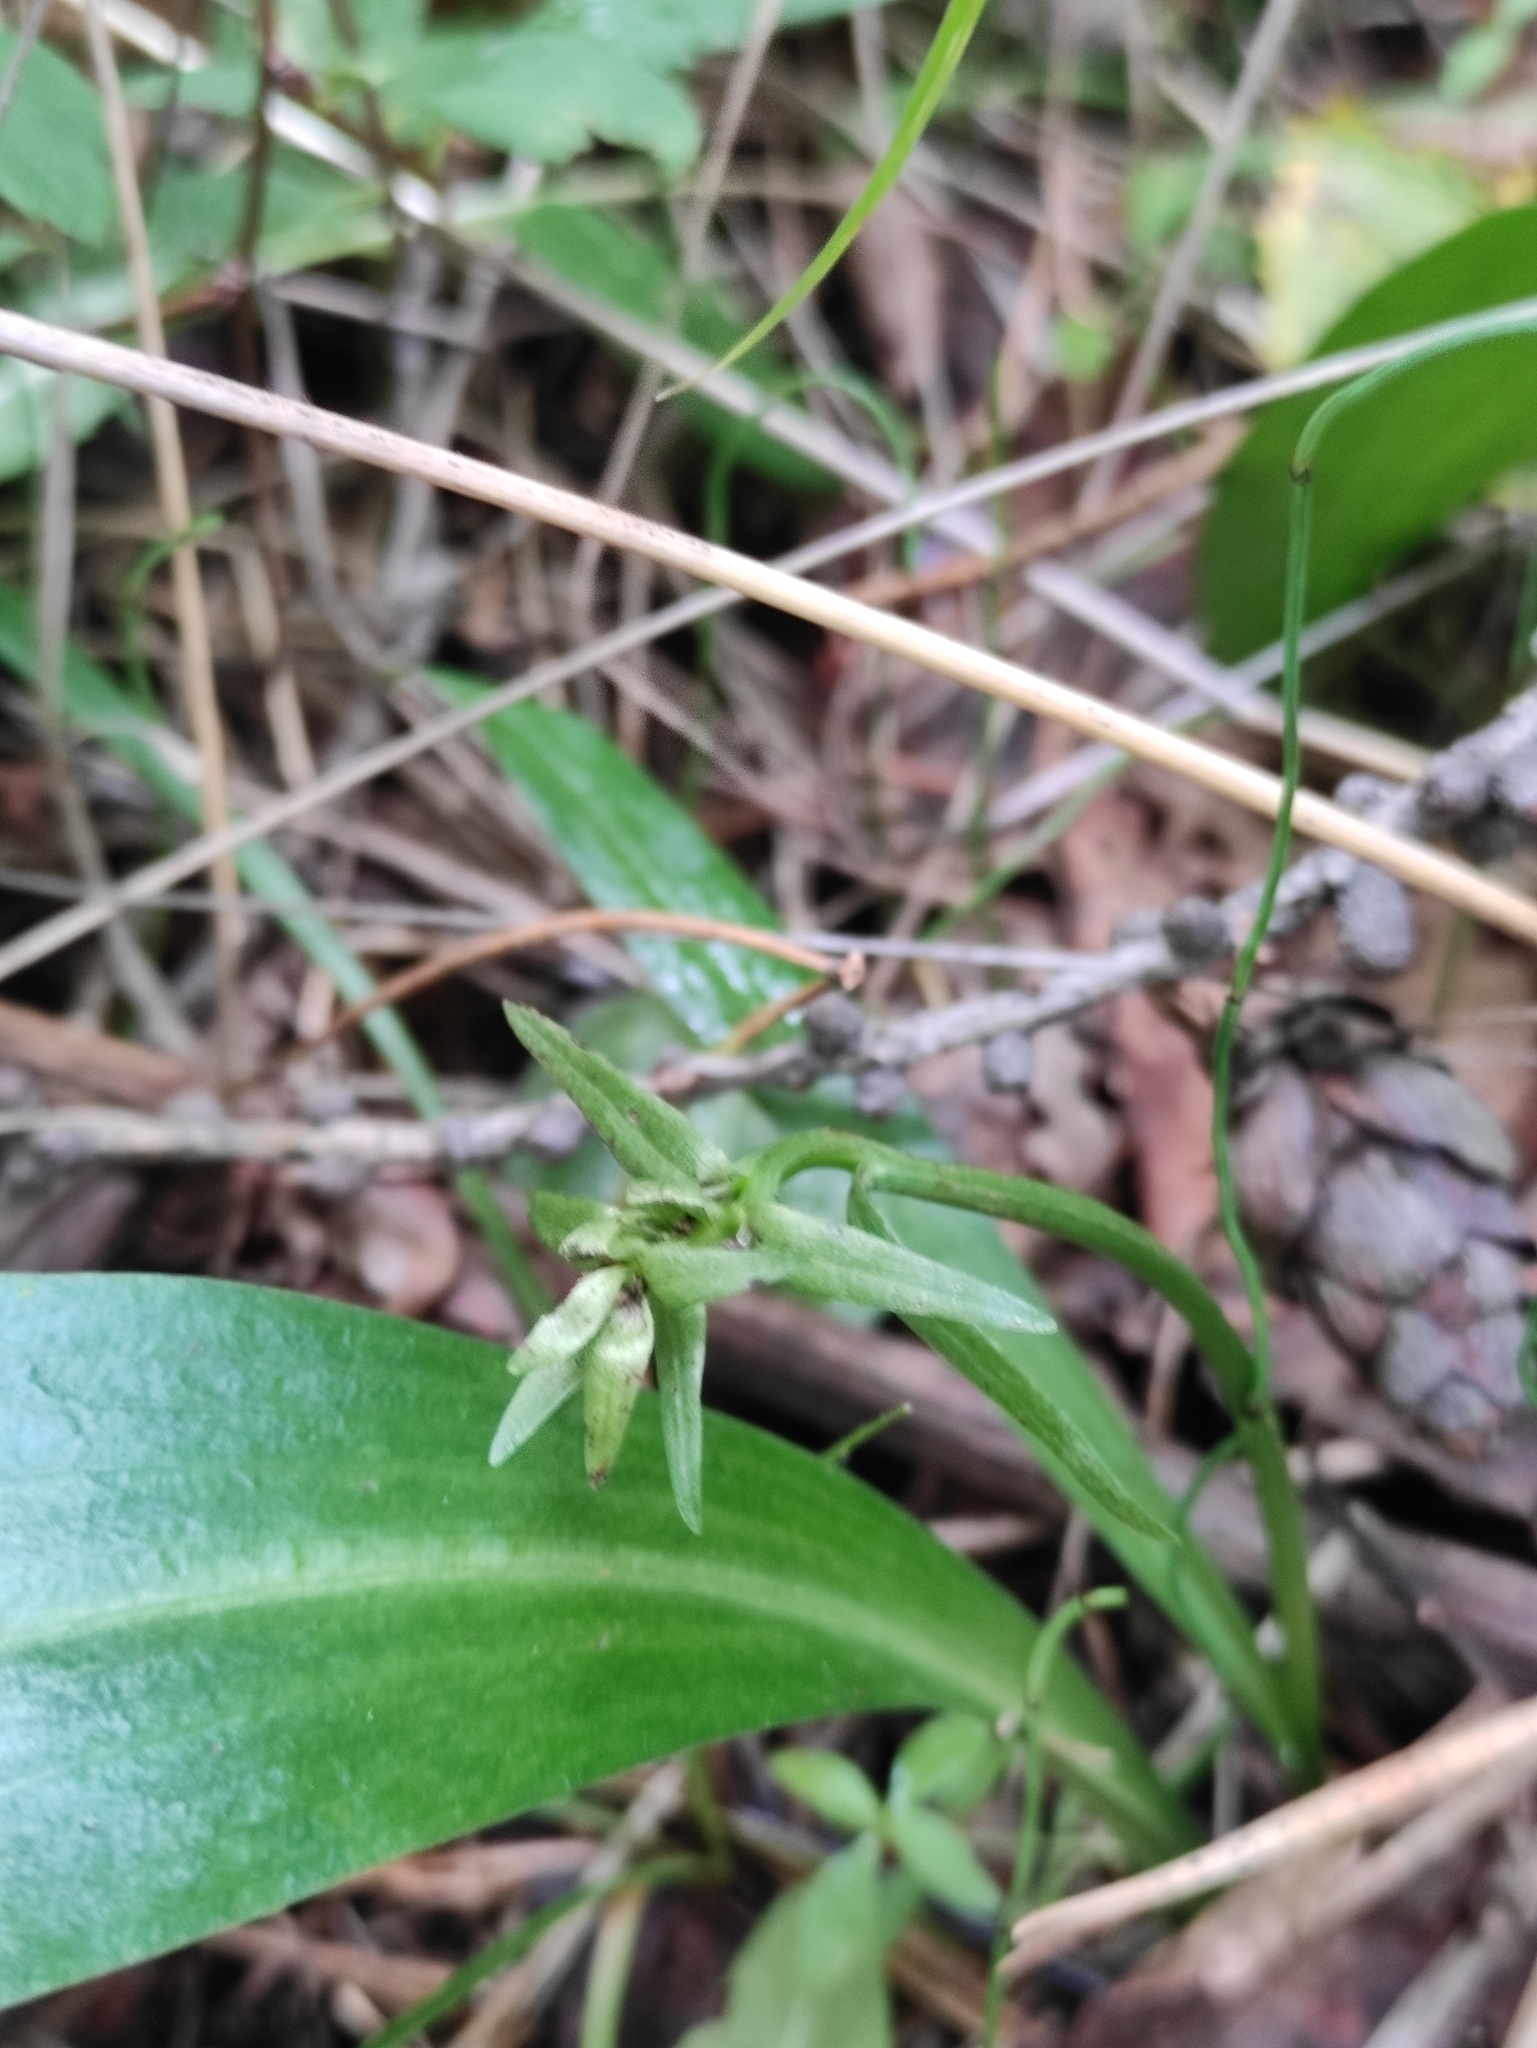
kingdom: Plantae
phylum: Tracheophyta
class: Liliopsida
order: Asparagales
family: Orchidaceae
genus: Platanthera
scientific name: Platanthera bifolia
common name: Lesser butterfly-orchid
